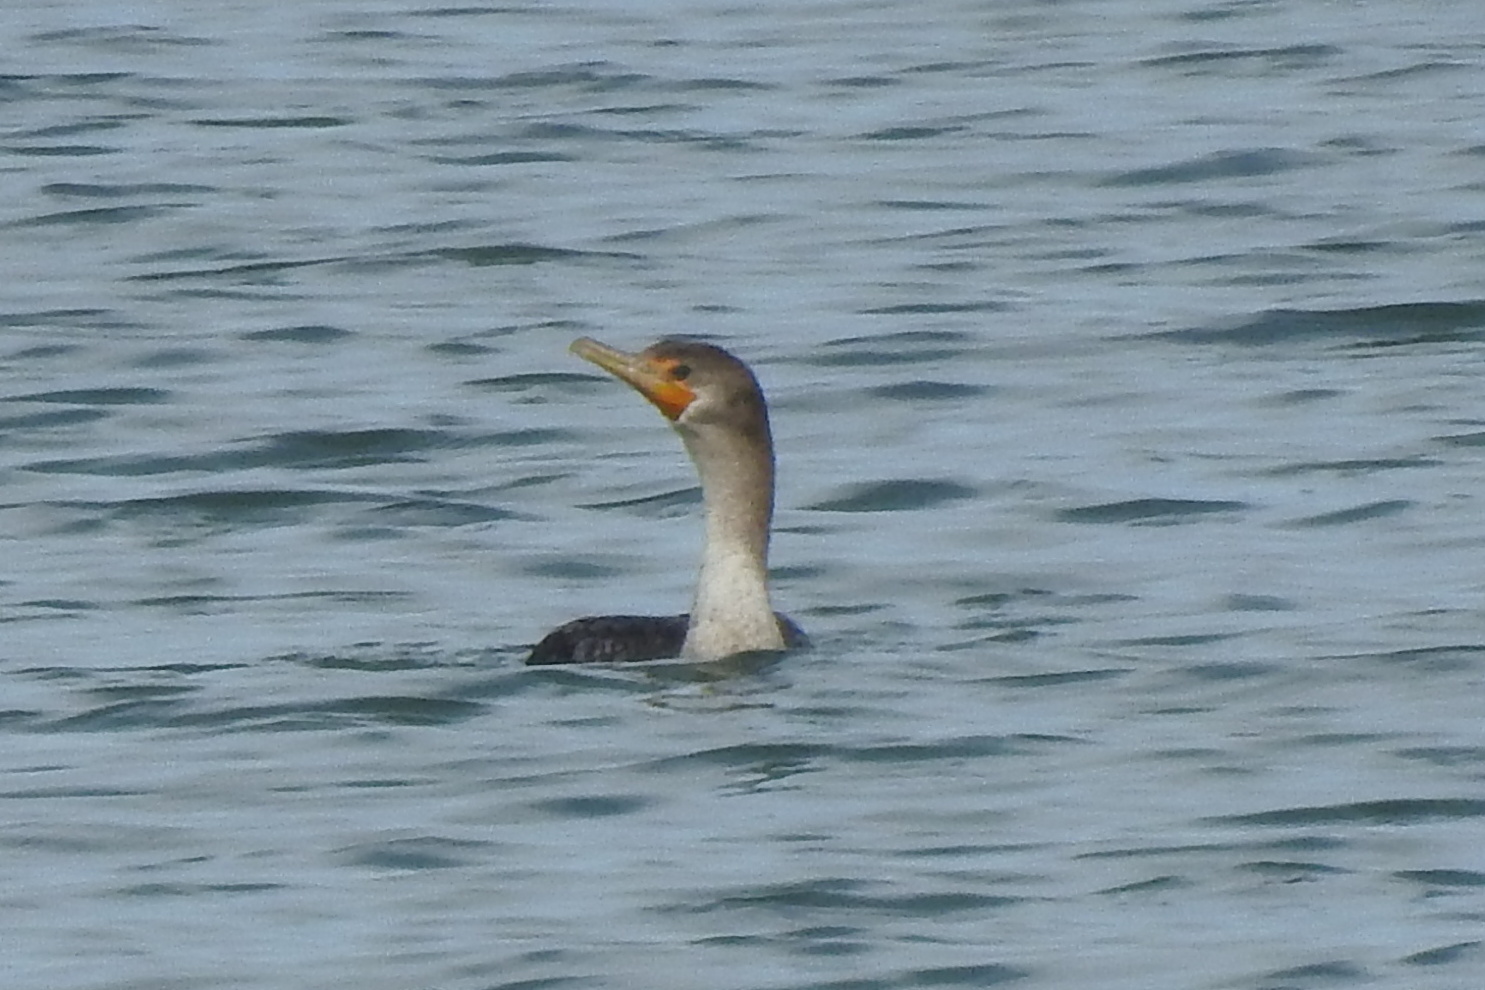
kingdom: Animalia
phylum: Chordata
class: Aves
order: Suliformes
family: Phalacrocoracidae
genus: Phalacrocorax
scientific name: Phalacrocorax auritus
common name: Double-crested cormorant
